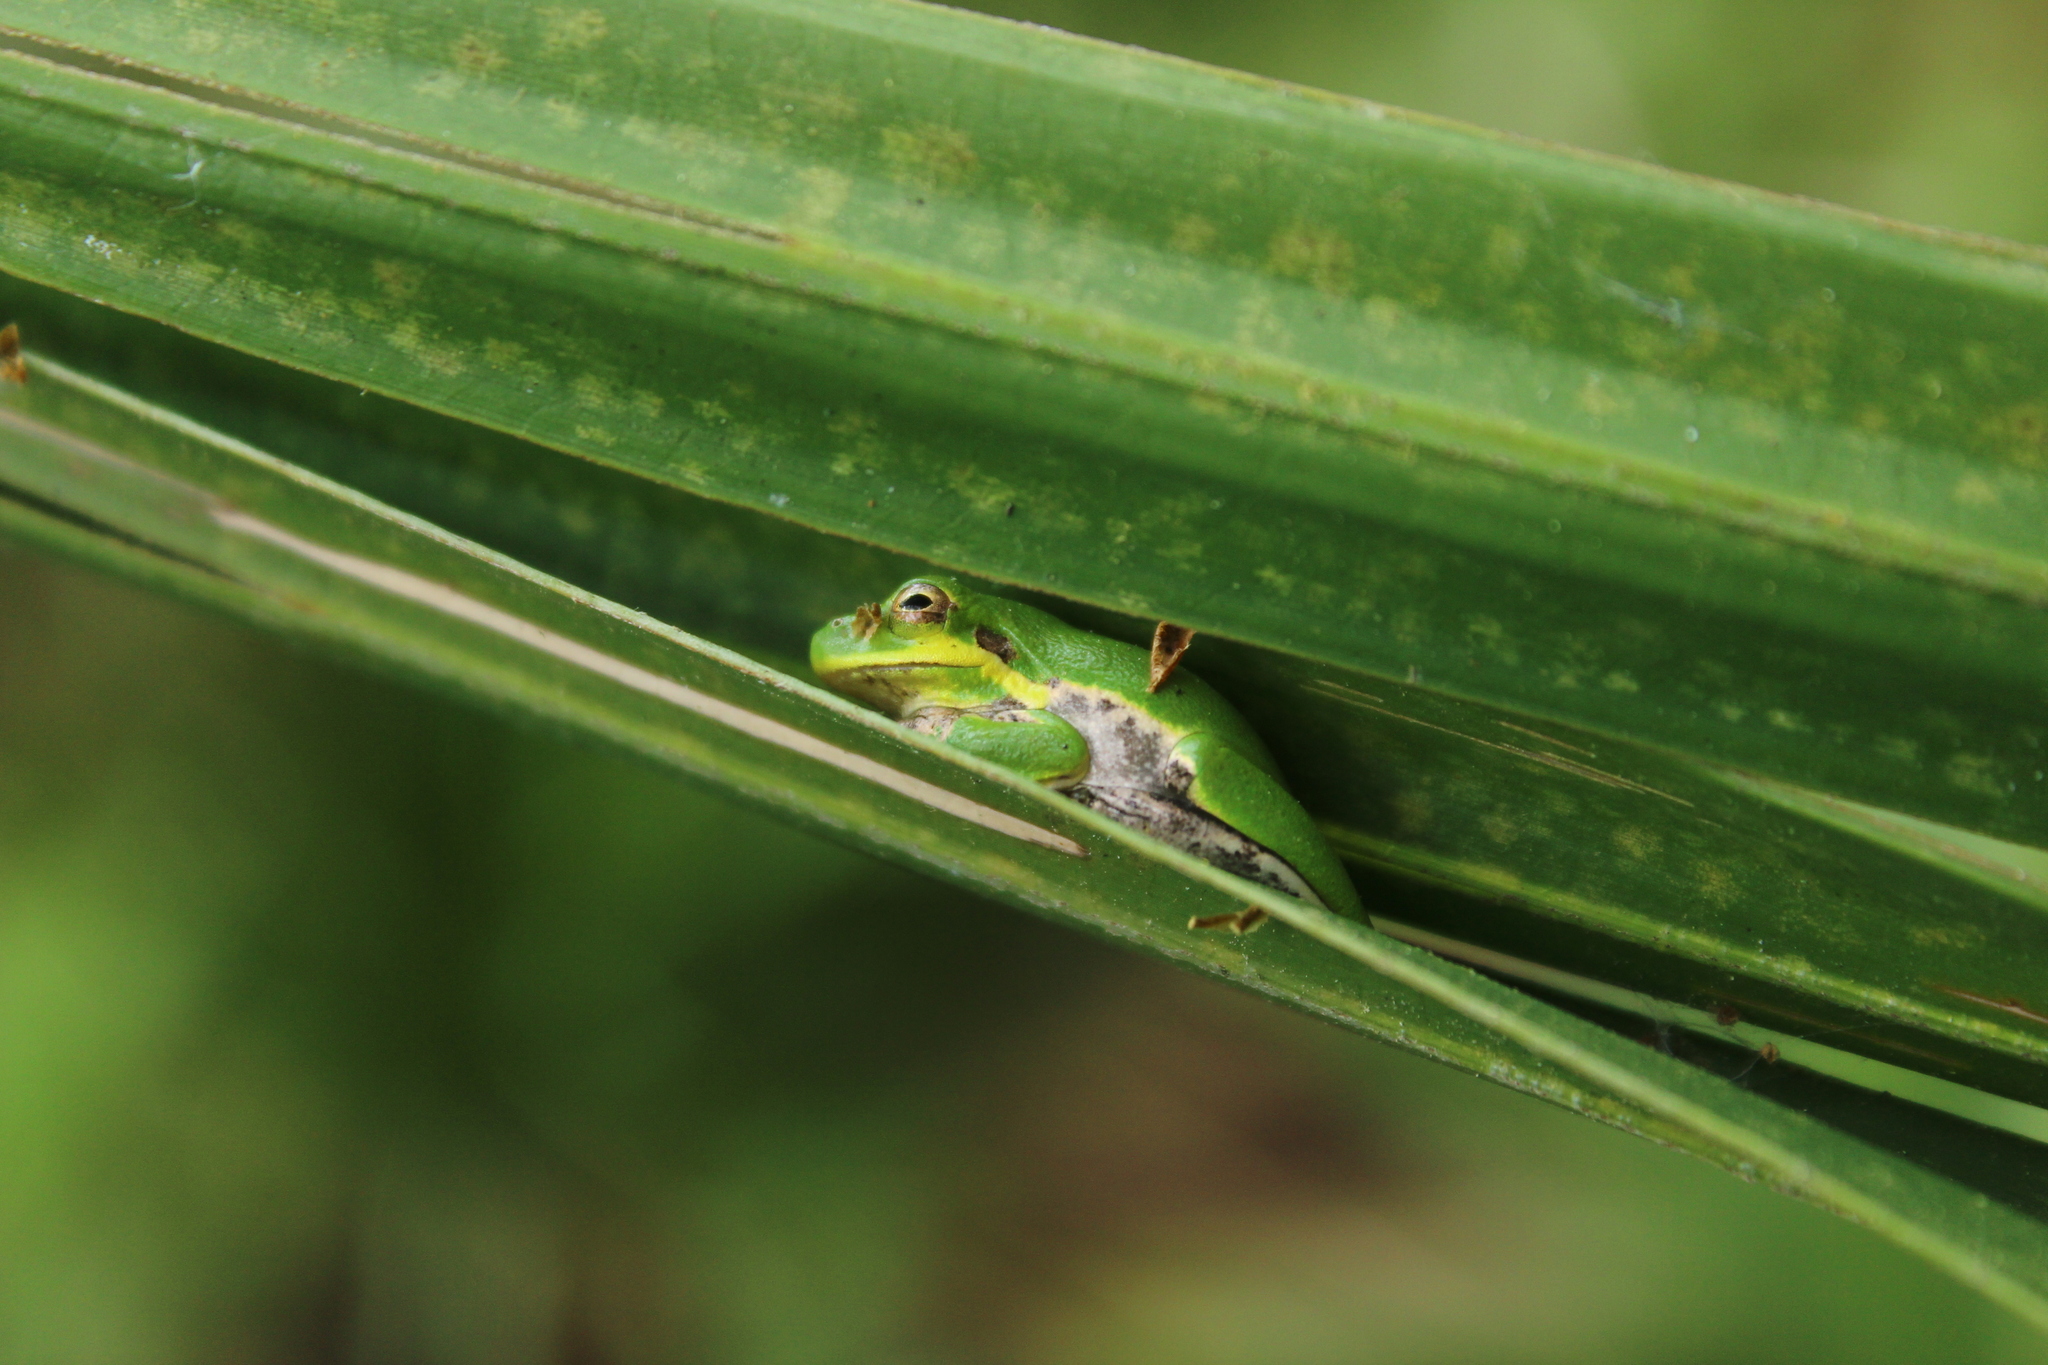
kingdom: Animalia
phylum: Chordata
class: Amphibia
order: Anura
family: Hylidae
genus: Dryophytes
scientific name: Dryophytes squirellus
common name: Squirrel treefrog
